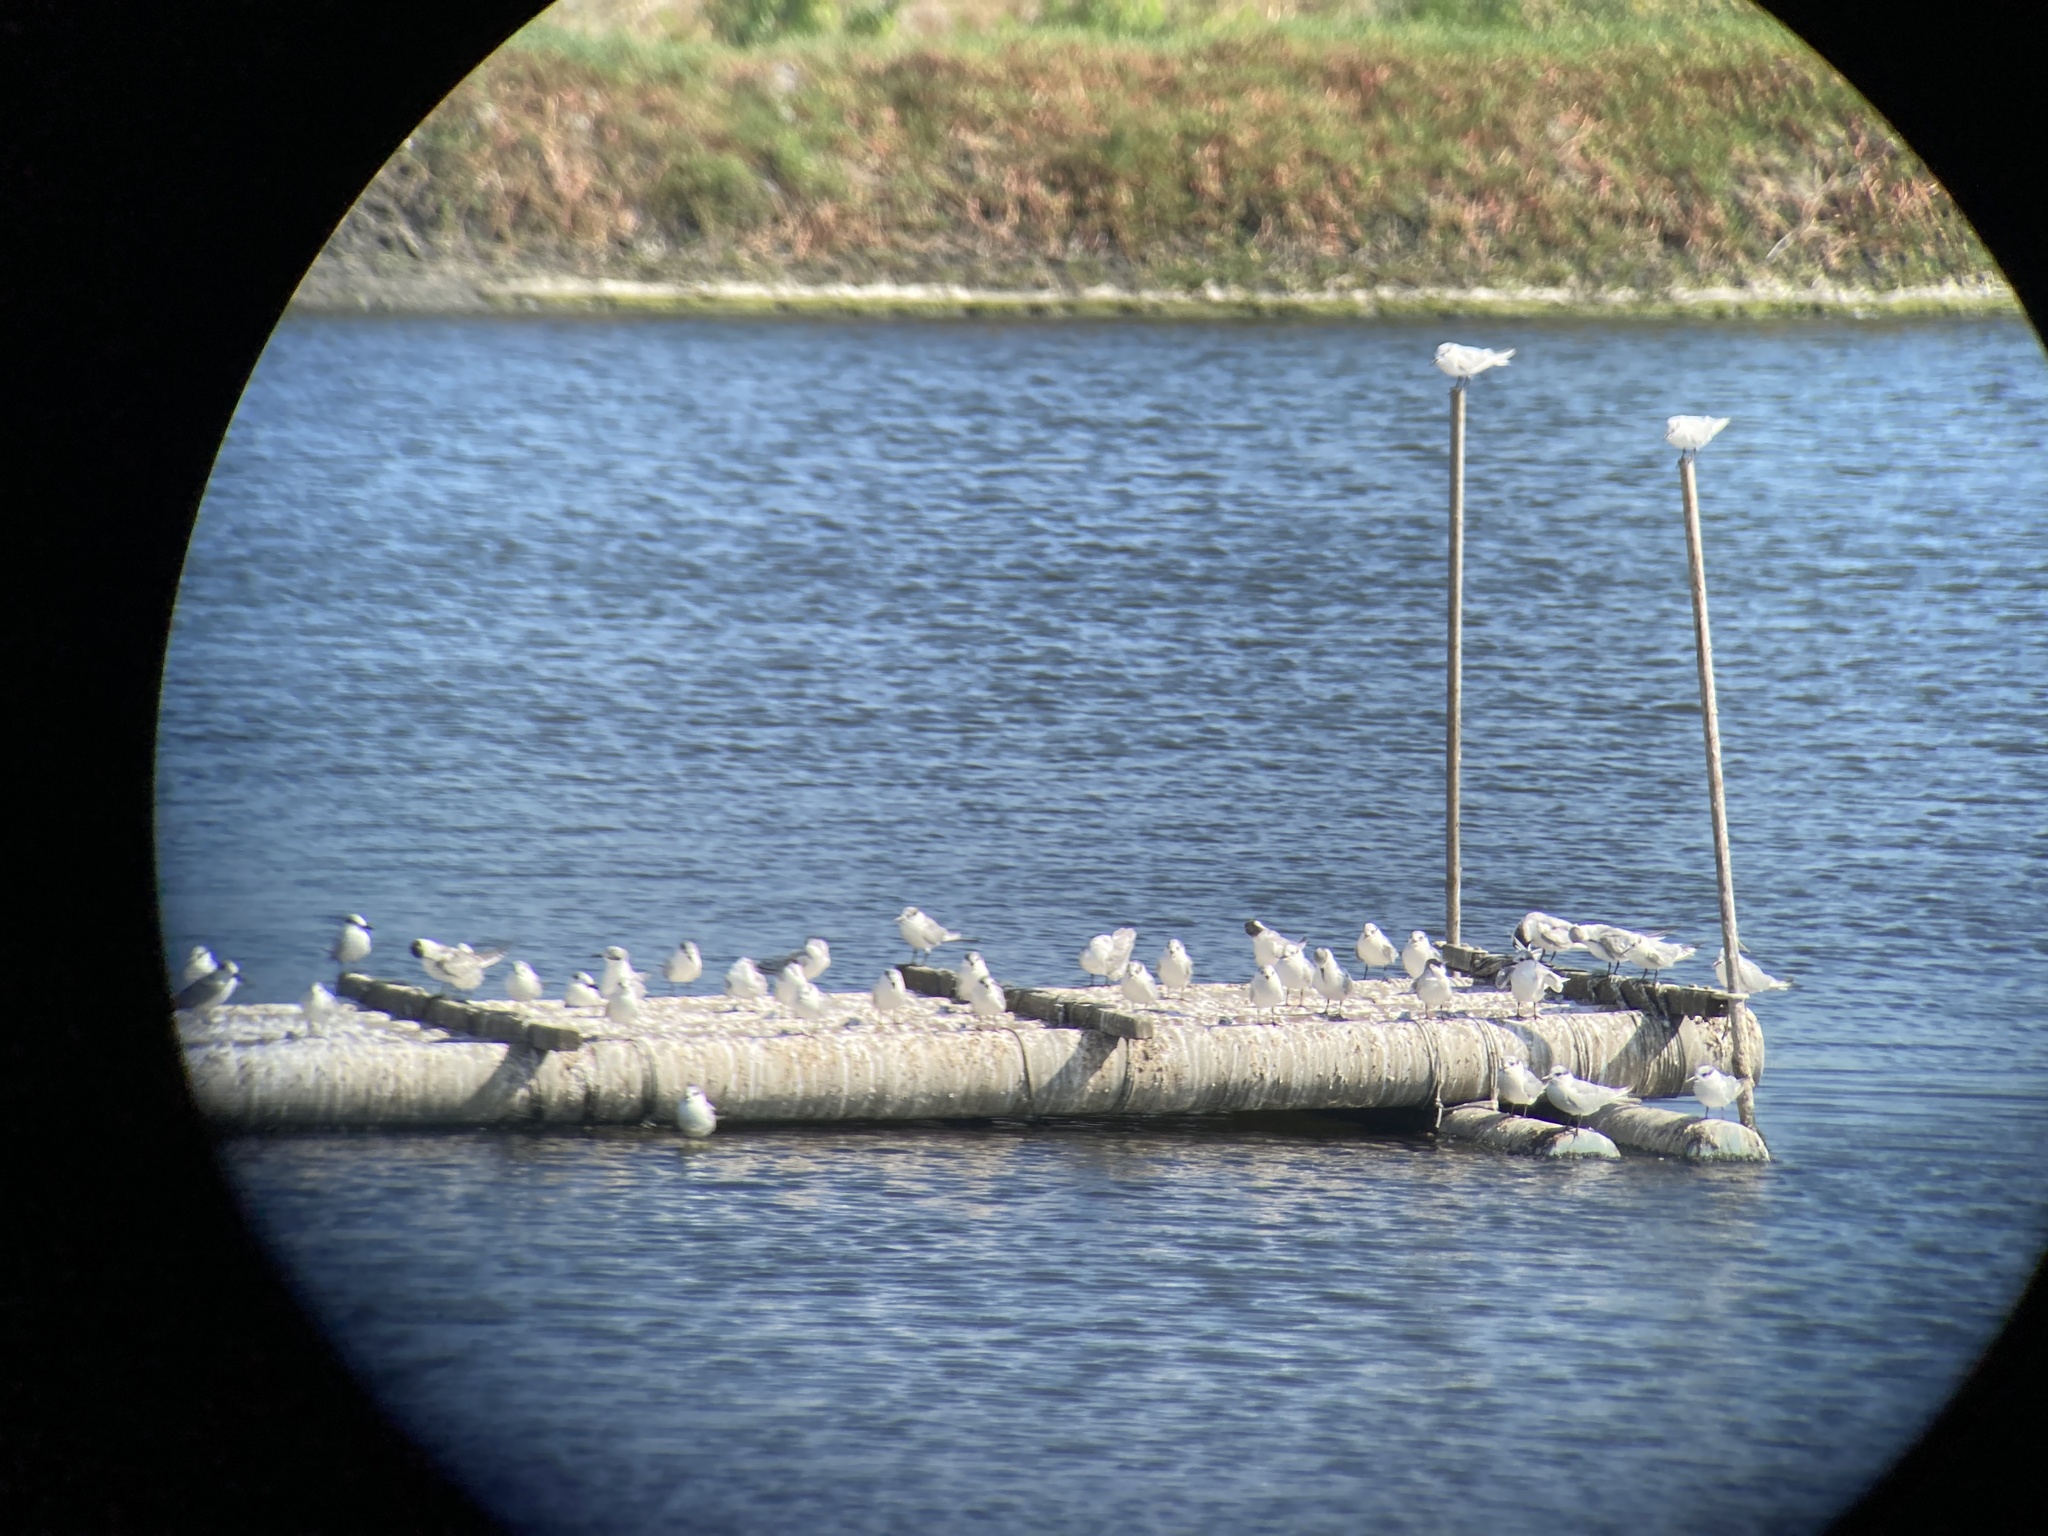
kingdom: Animalia
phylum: Chordata
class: Aves
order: Charadriiformes
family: Laridae
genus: Chlidonias
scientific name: Chlidonias hybrida
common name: Whiskered tern
